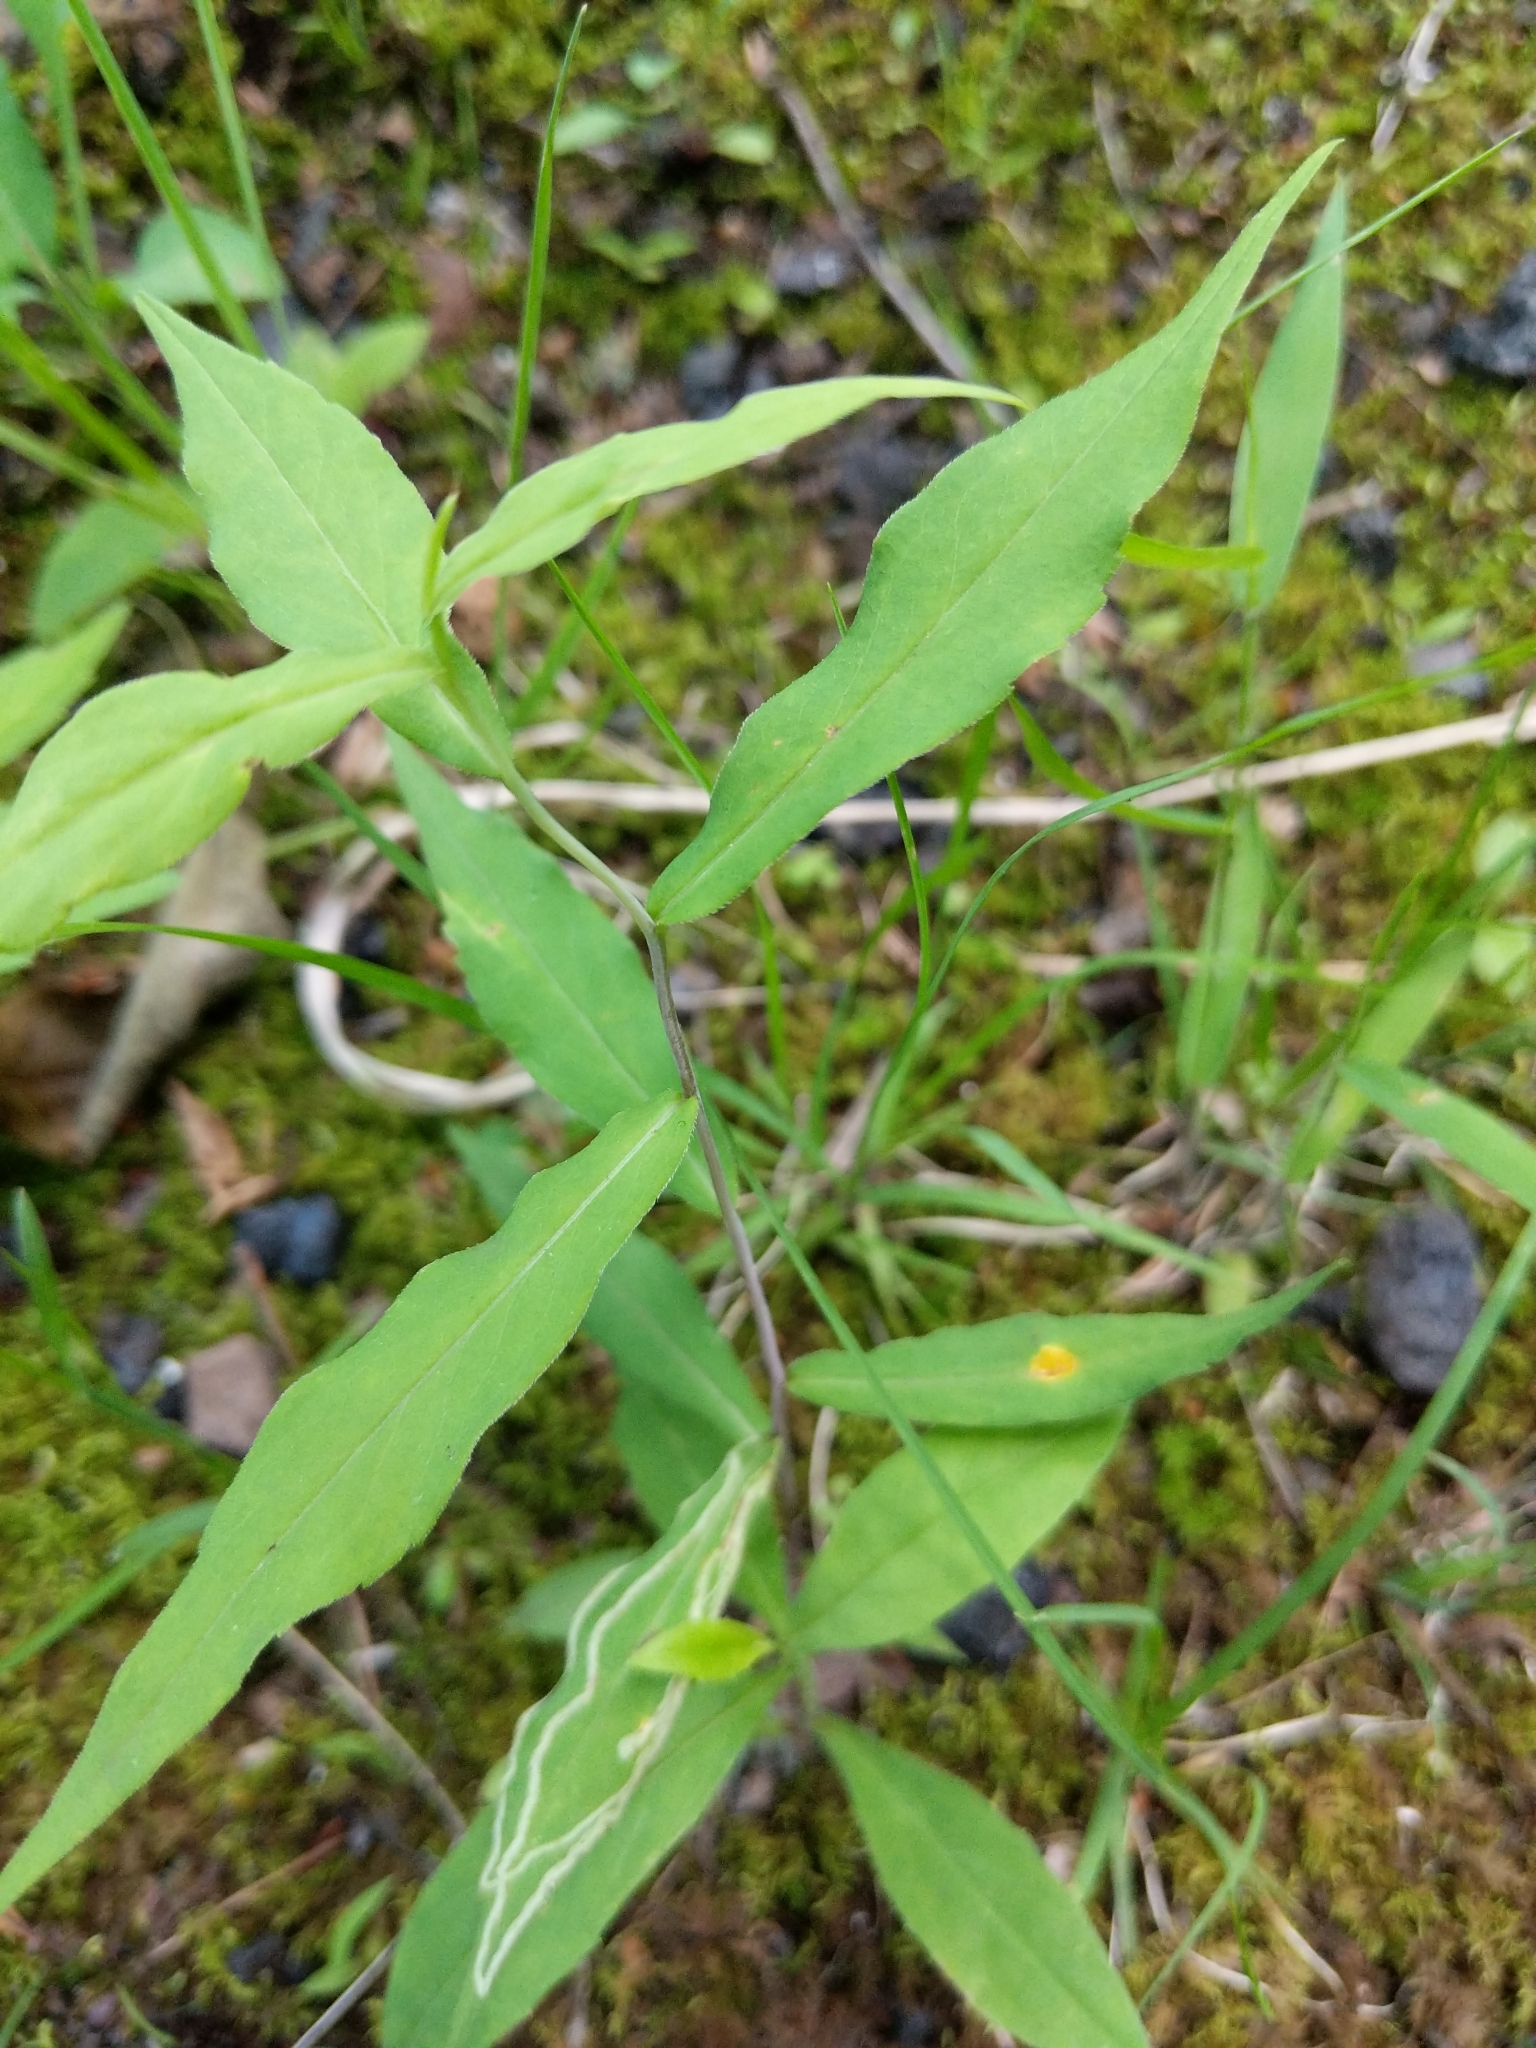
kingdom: Plantae
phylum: Tracheophyta
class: Magnoliopsida
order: Asterales
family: Asteraceae
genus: Solidago
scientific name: Solidago caesia
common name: Woodland goldenrod
